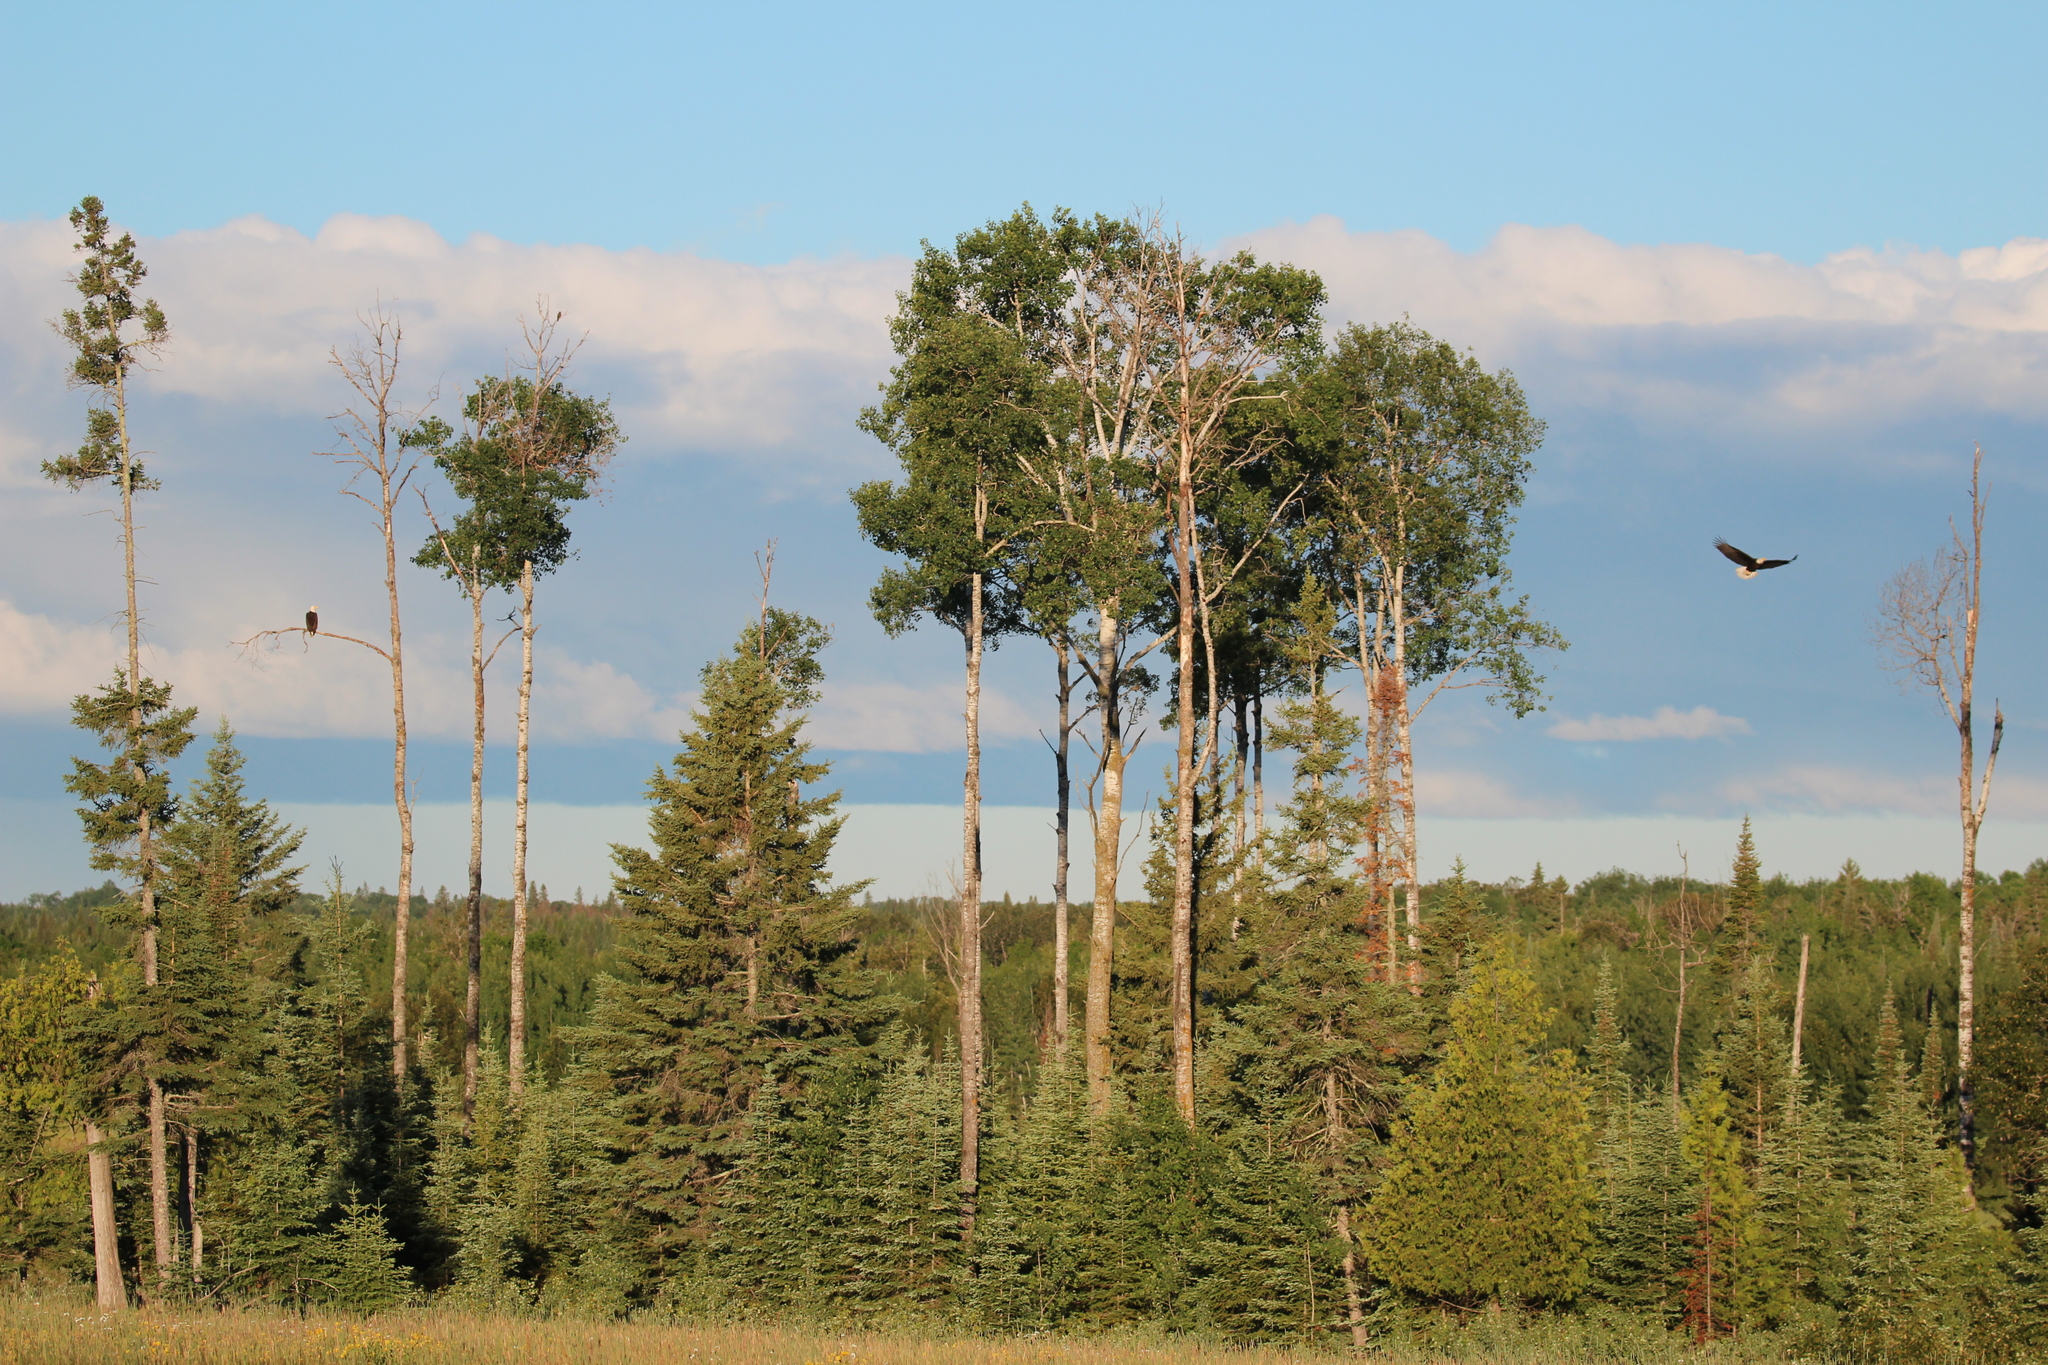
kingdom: Animalia
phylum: Chordata
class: Aves
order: Accipitriformes
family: Accipitridae
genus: Haliaeetus
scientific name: Haliaeetus leucocephalus
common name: Bald eagle
